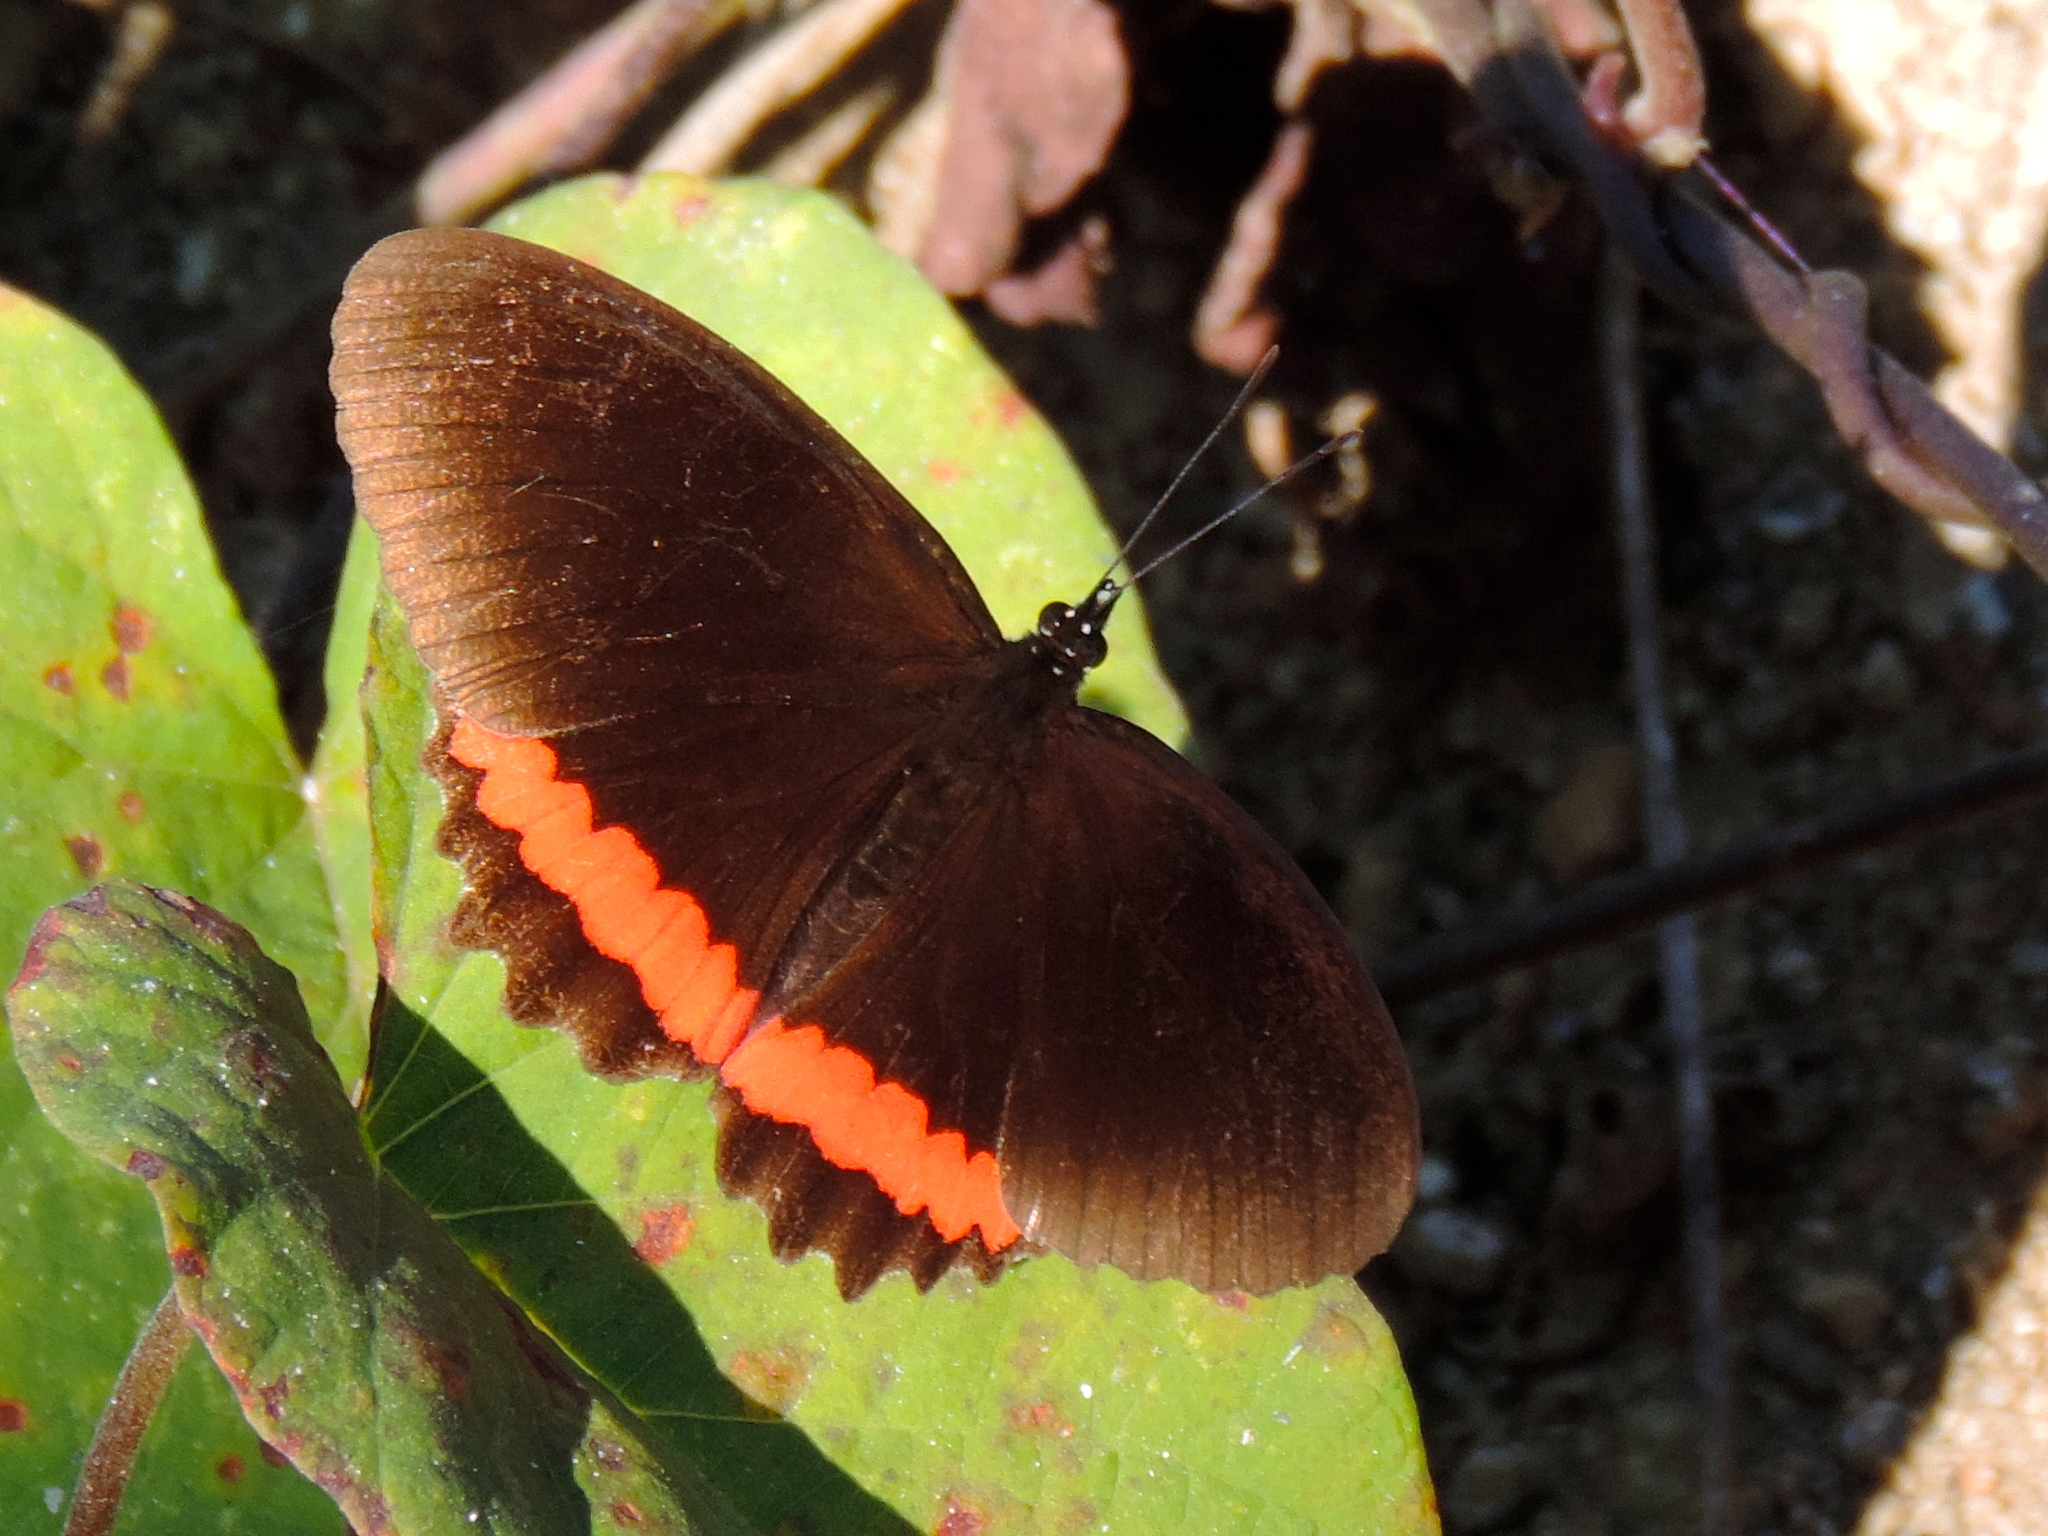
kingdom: Animalia
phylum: Arthropoda
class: Insecta
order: Lepidoptera
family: Nymphalidae
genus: Biblis
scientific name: Biblis
